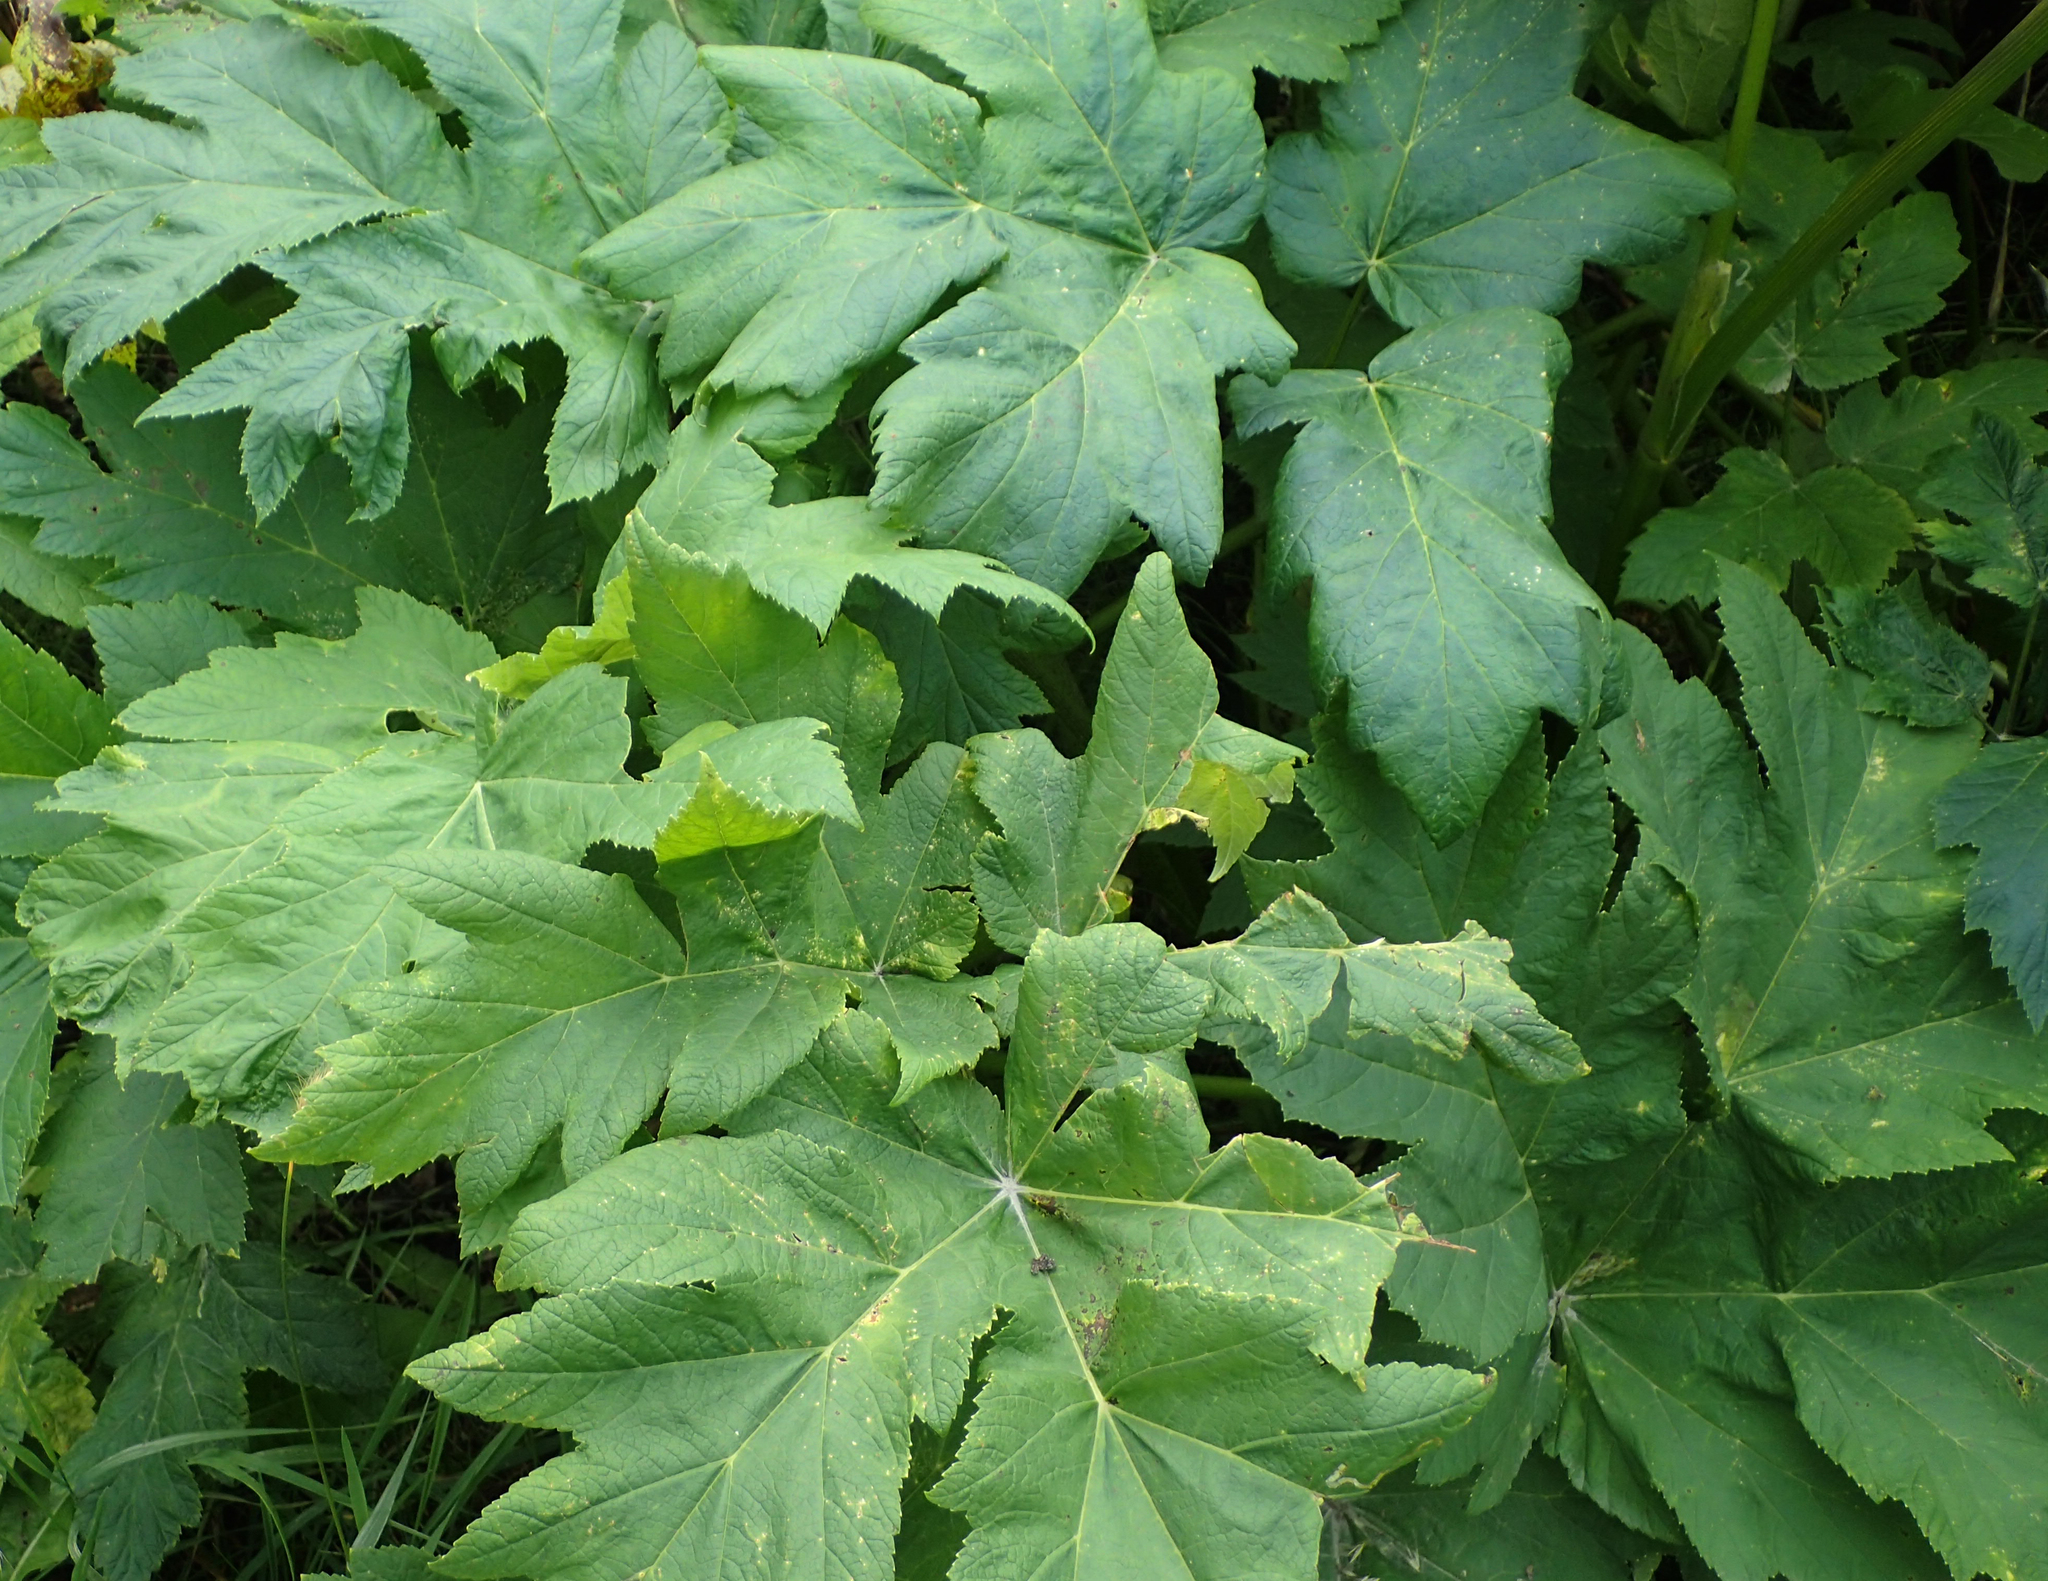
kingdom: Plantae
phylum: Tracheophyta
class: Magnoliopsida
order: Apiales
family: Apiaceae
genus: Heracleum
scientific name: Heracleum maximum
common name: American cow parsnip
